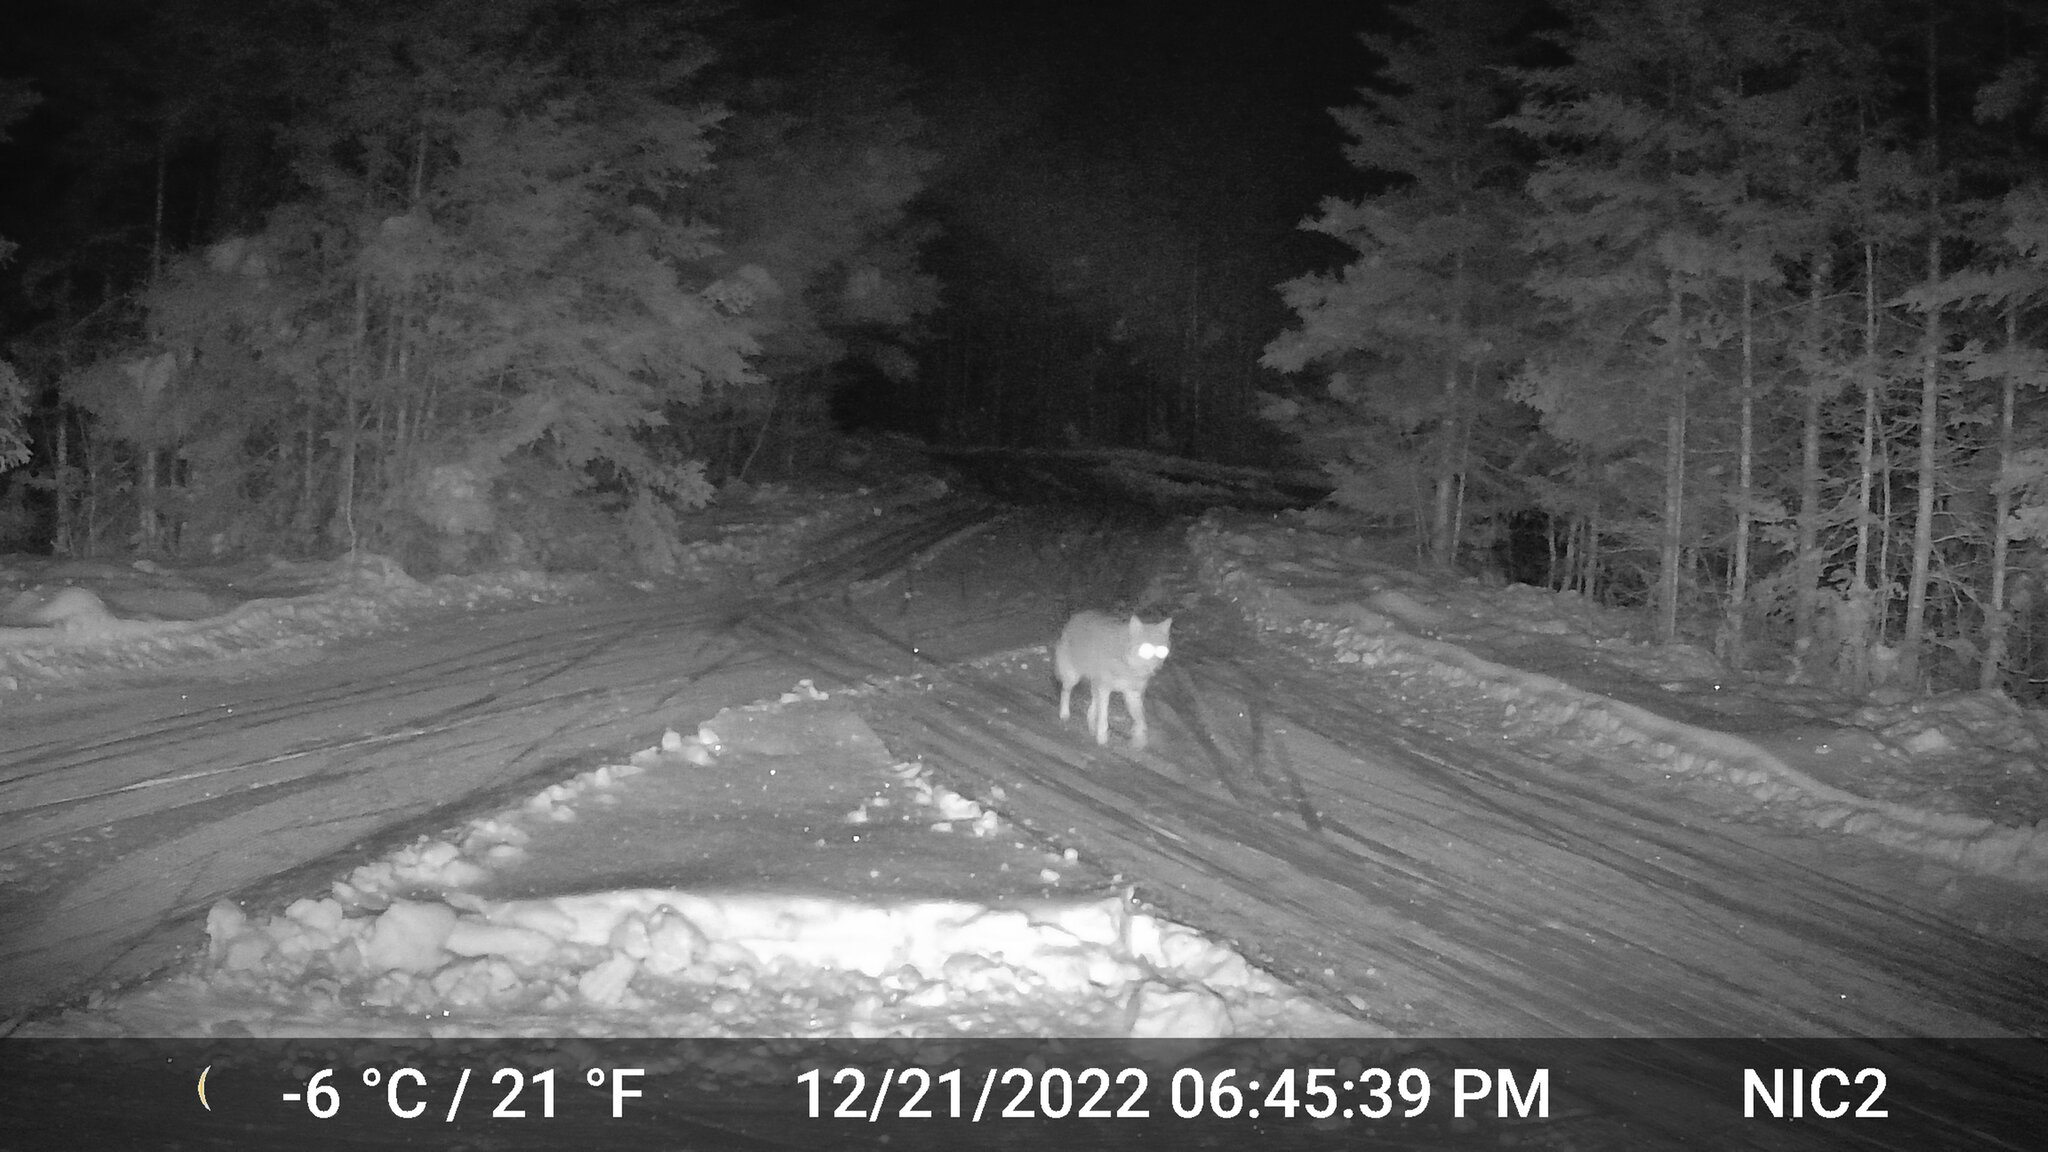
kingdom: Animalia
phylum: Chordata
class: Mammalia
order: Carnivora
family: Canidae
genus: Canis
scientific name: Canis latrans
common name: Coyote
